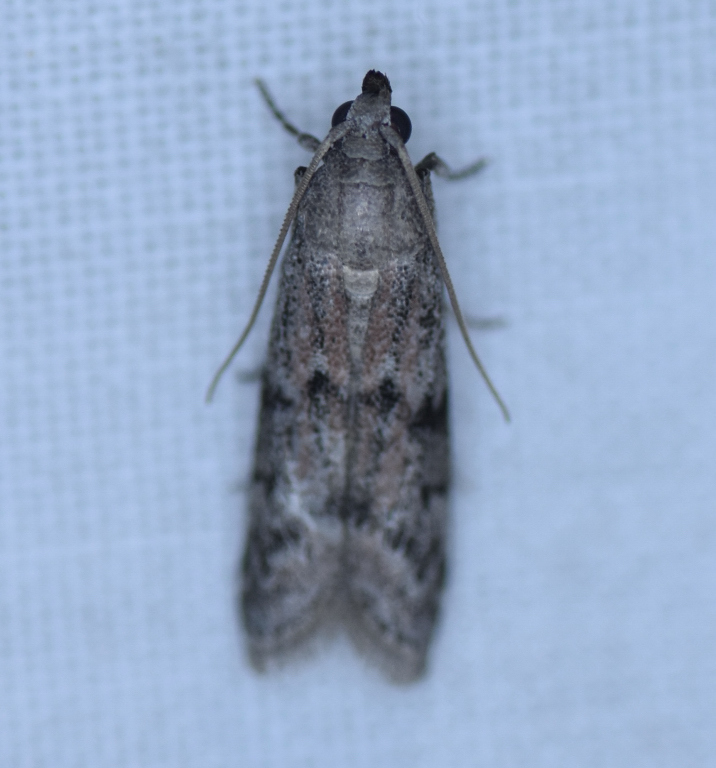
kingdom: Animalia
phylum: Arthropoda
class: Insecta
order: Lepidoptera
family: Pyralidae
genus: Vitula
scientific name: Vitula edmandsii
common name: Dried fruit moth
